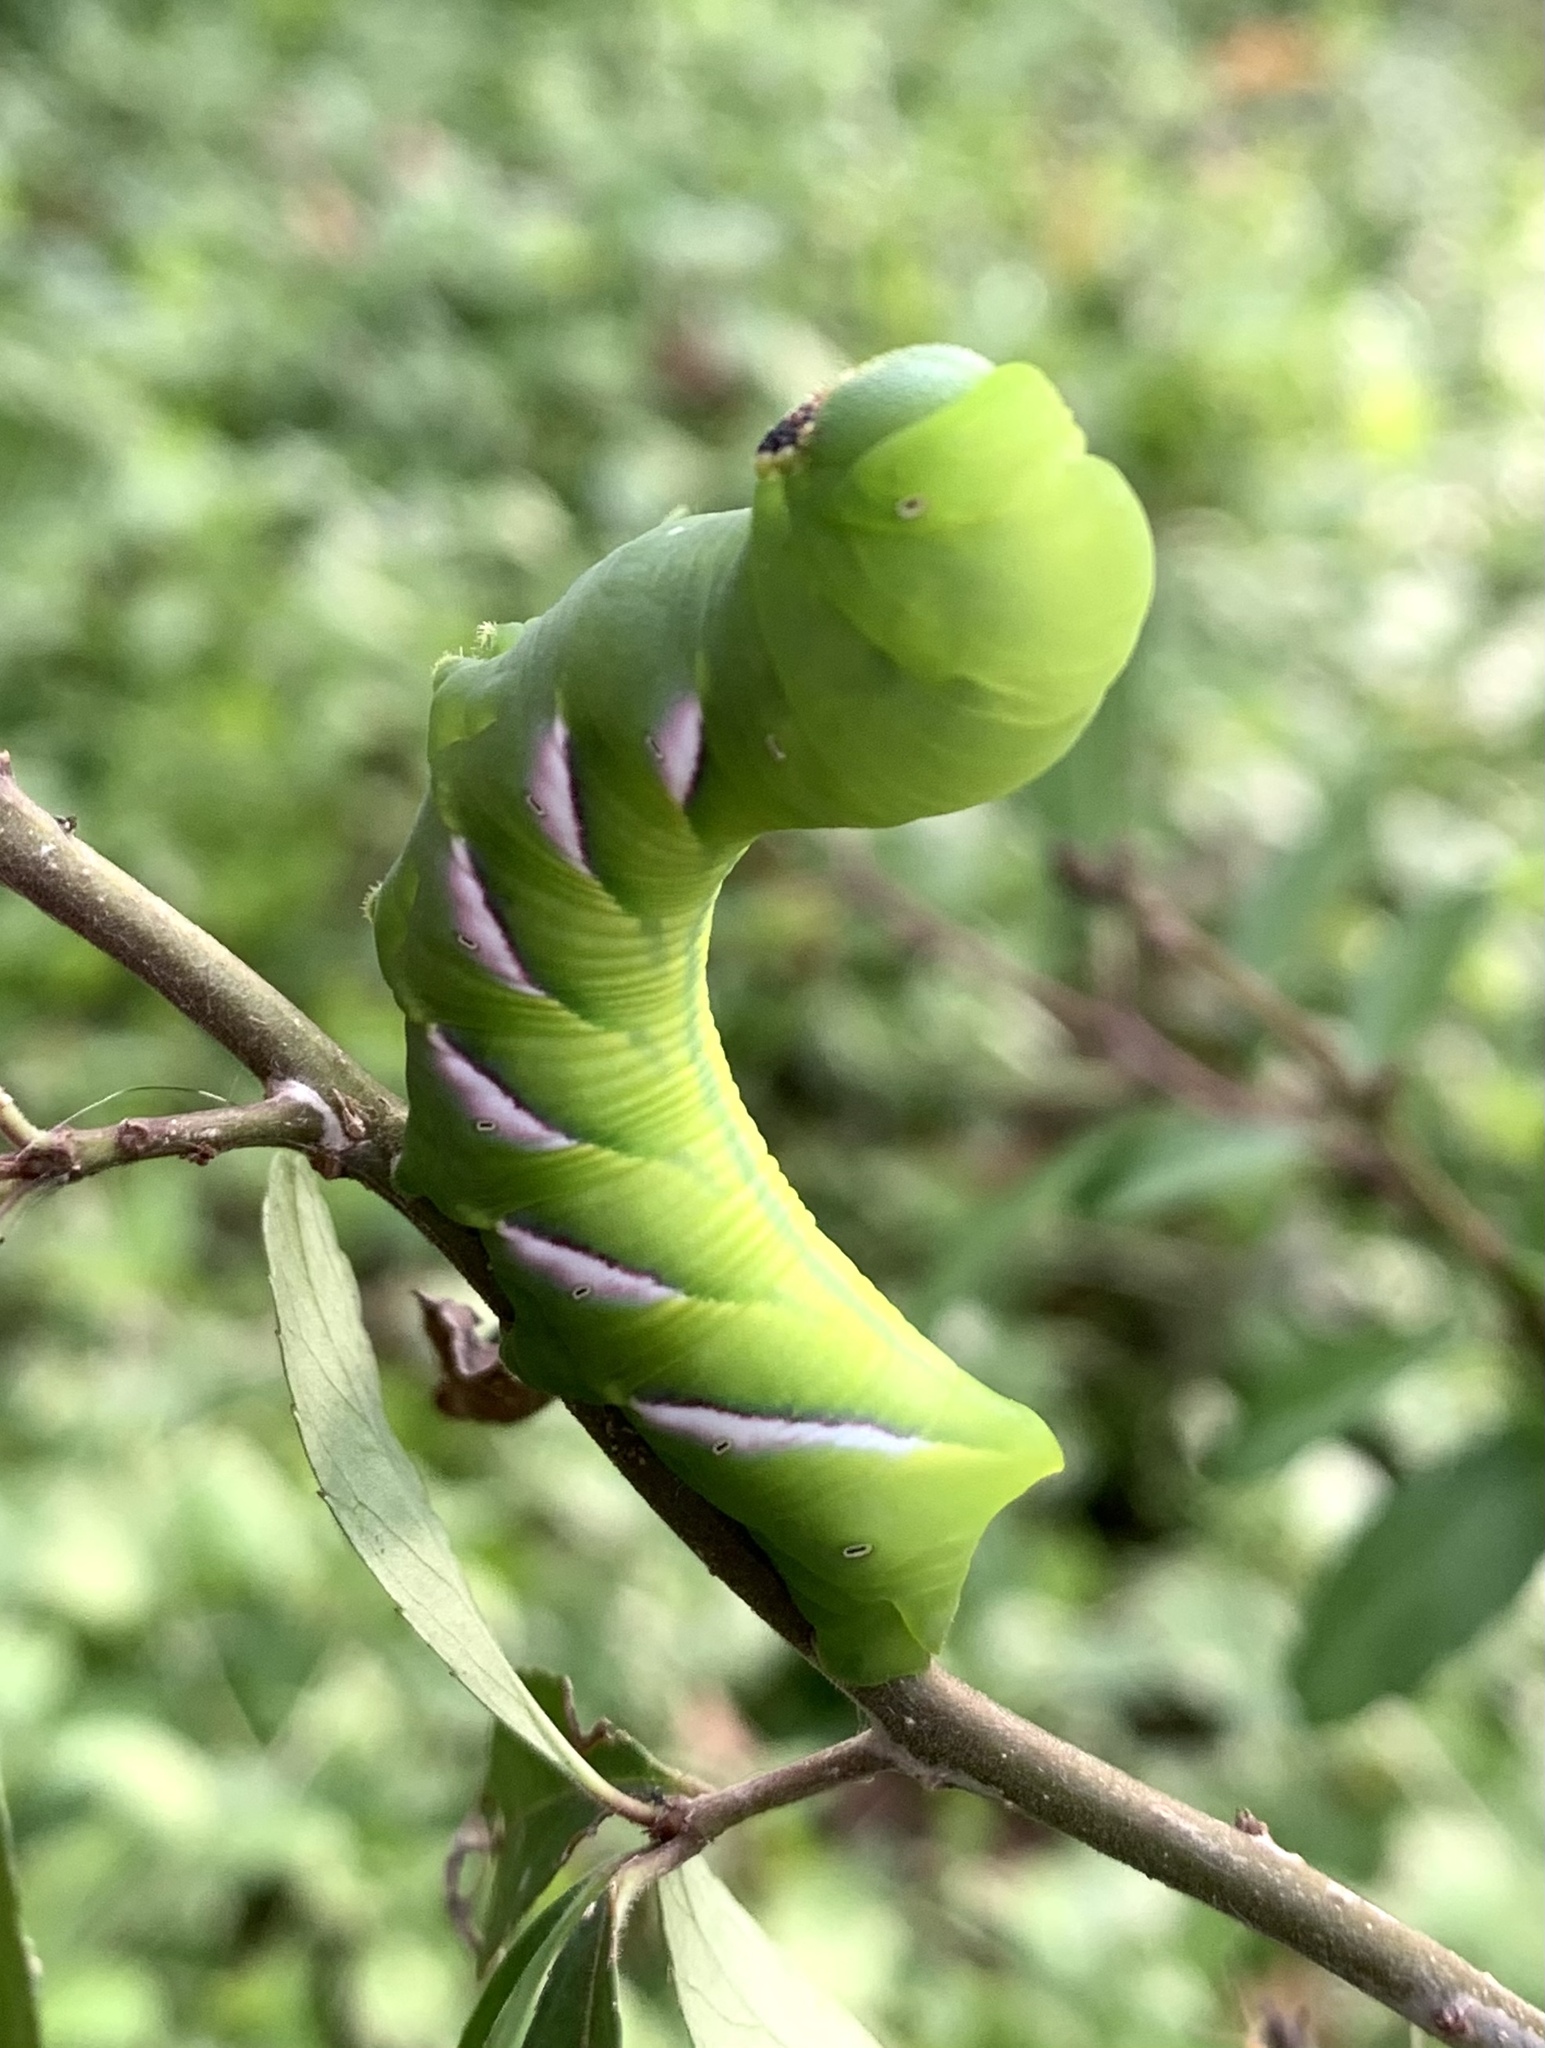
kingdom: Animalia
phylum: Arthropoda
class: Insecta
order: Lepidoptera
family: Sphingidae
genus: Dolba
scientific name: Dolba hyloeus
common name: Pawpaw sphinx
